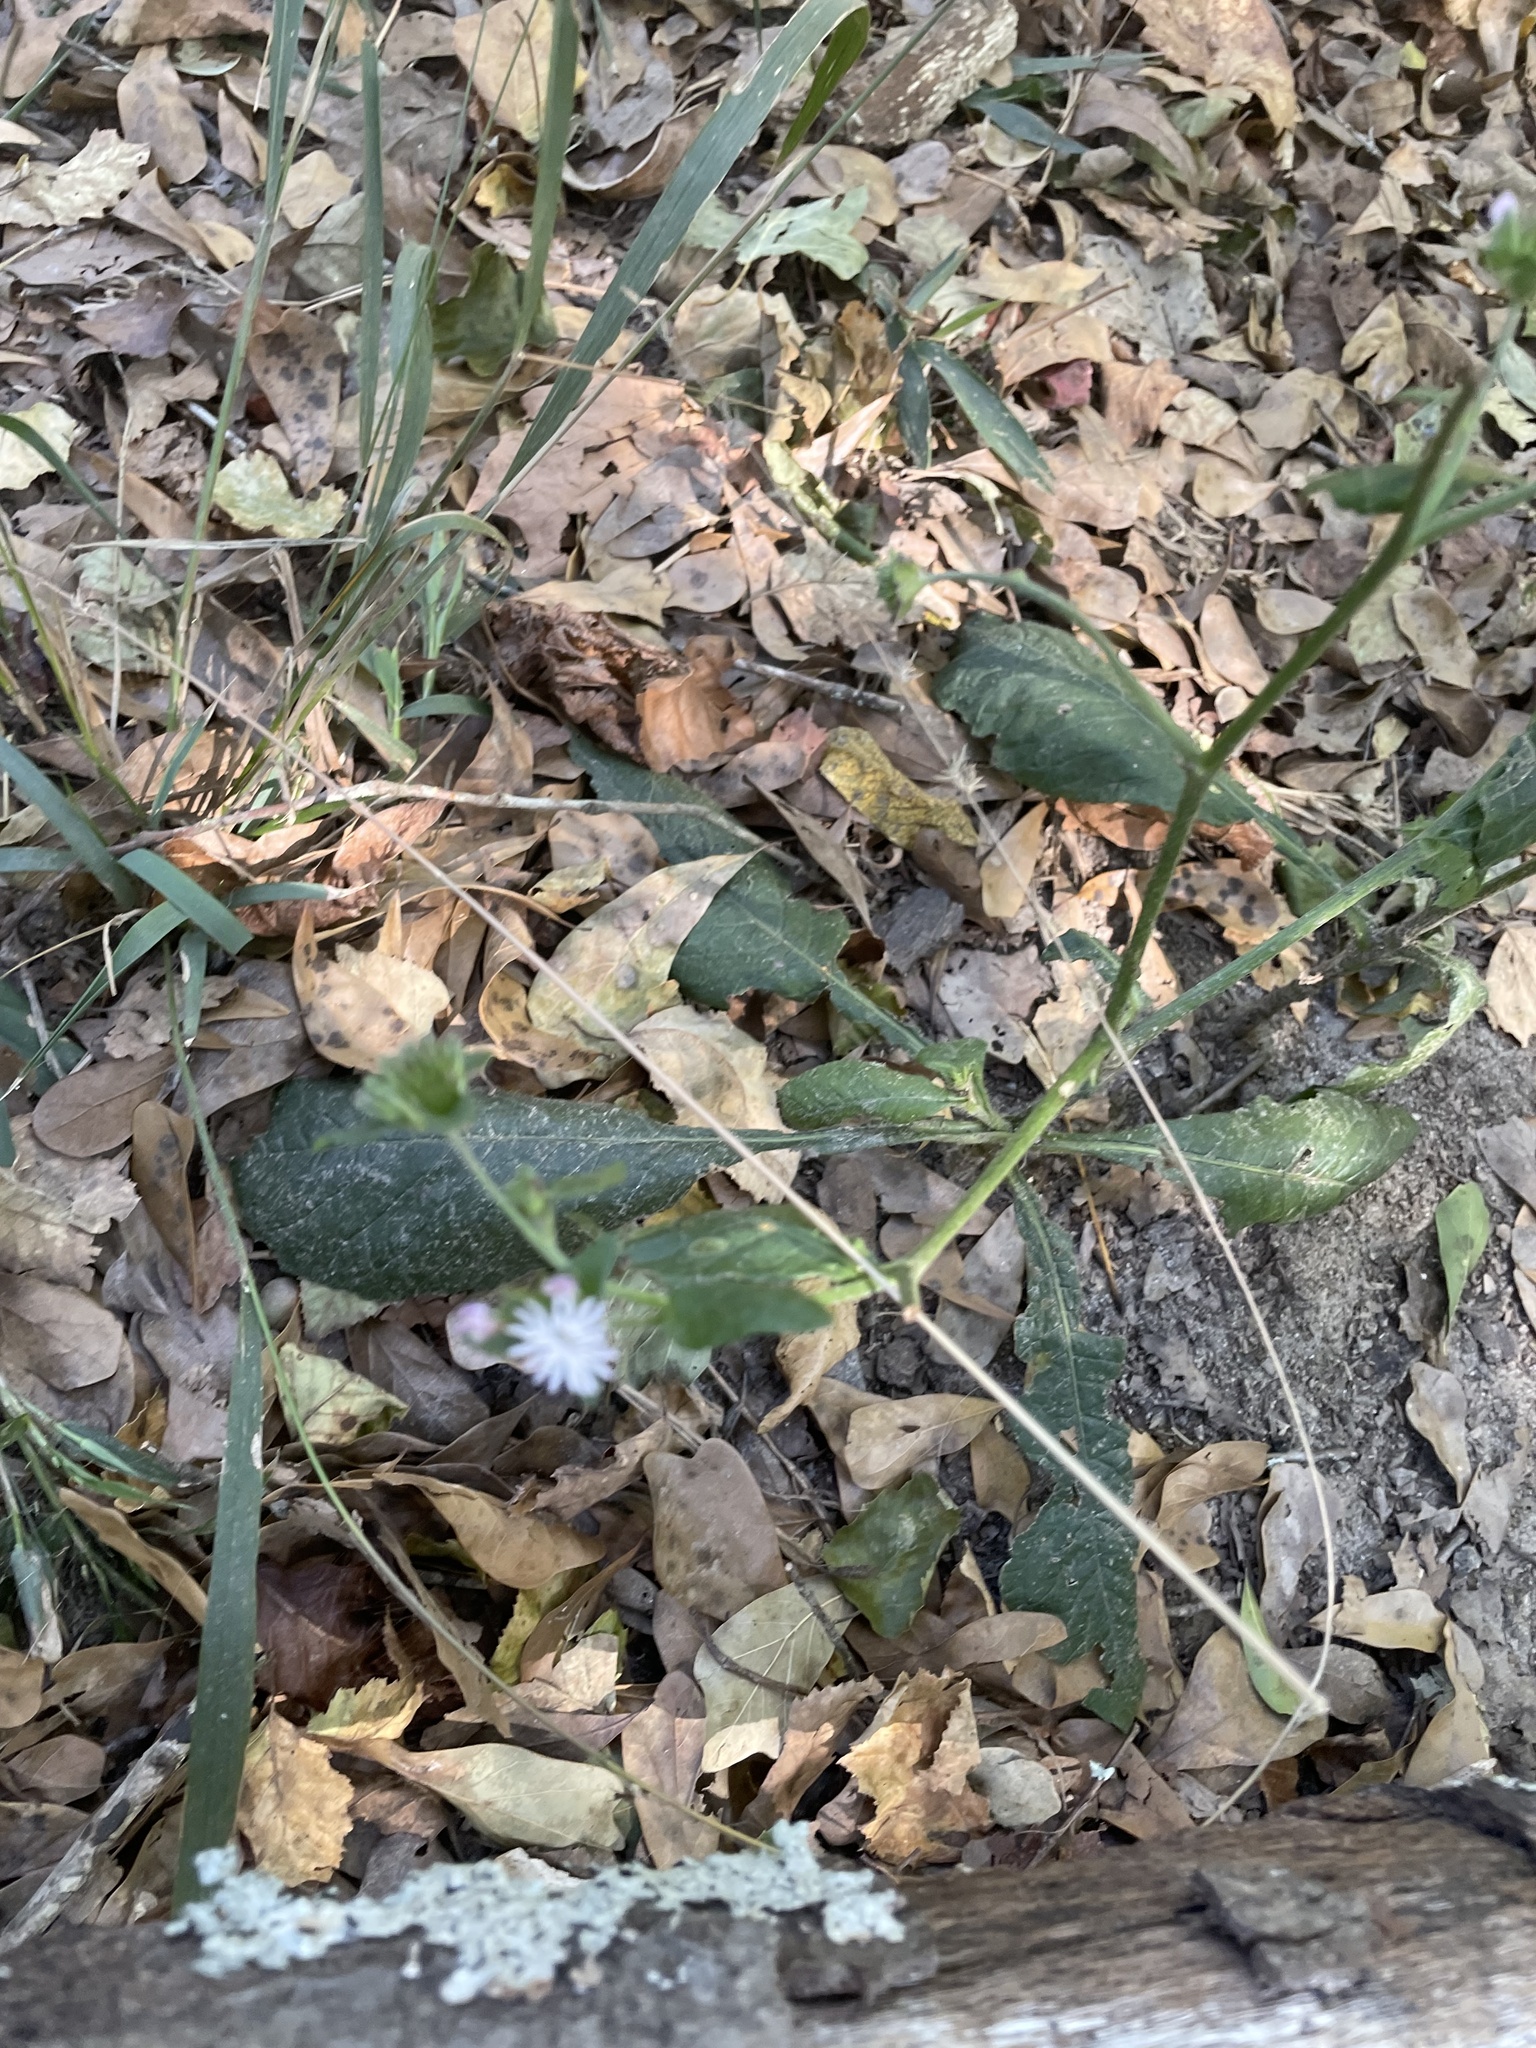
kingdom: Plantae
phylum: Tracheophyta
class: Magnoliopsida
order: Asterales
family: Asteraceae
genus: Elephantopus
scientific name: Elephantopus carolinianus
